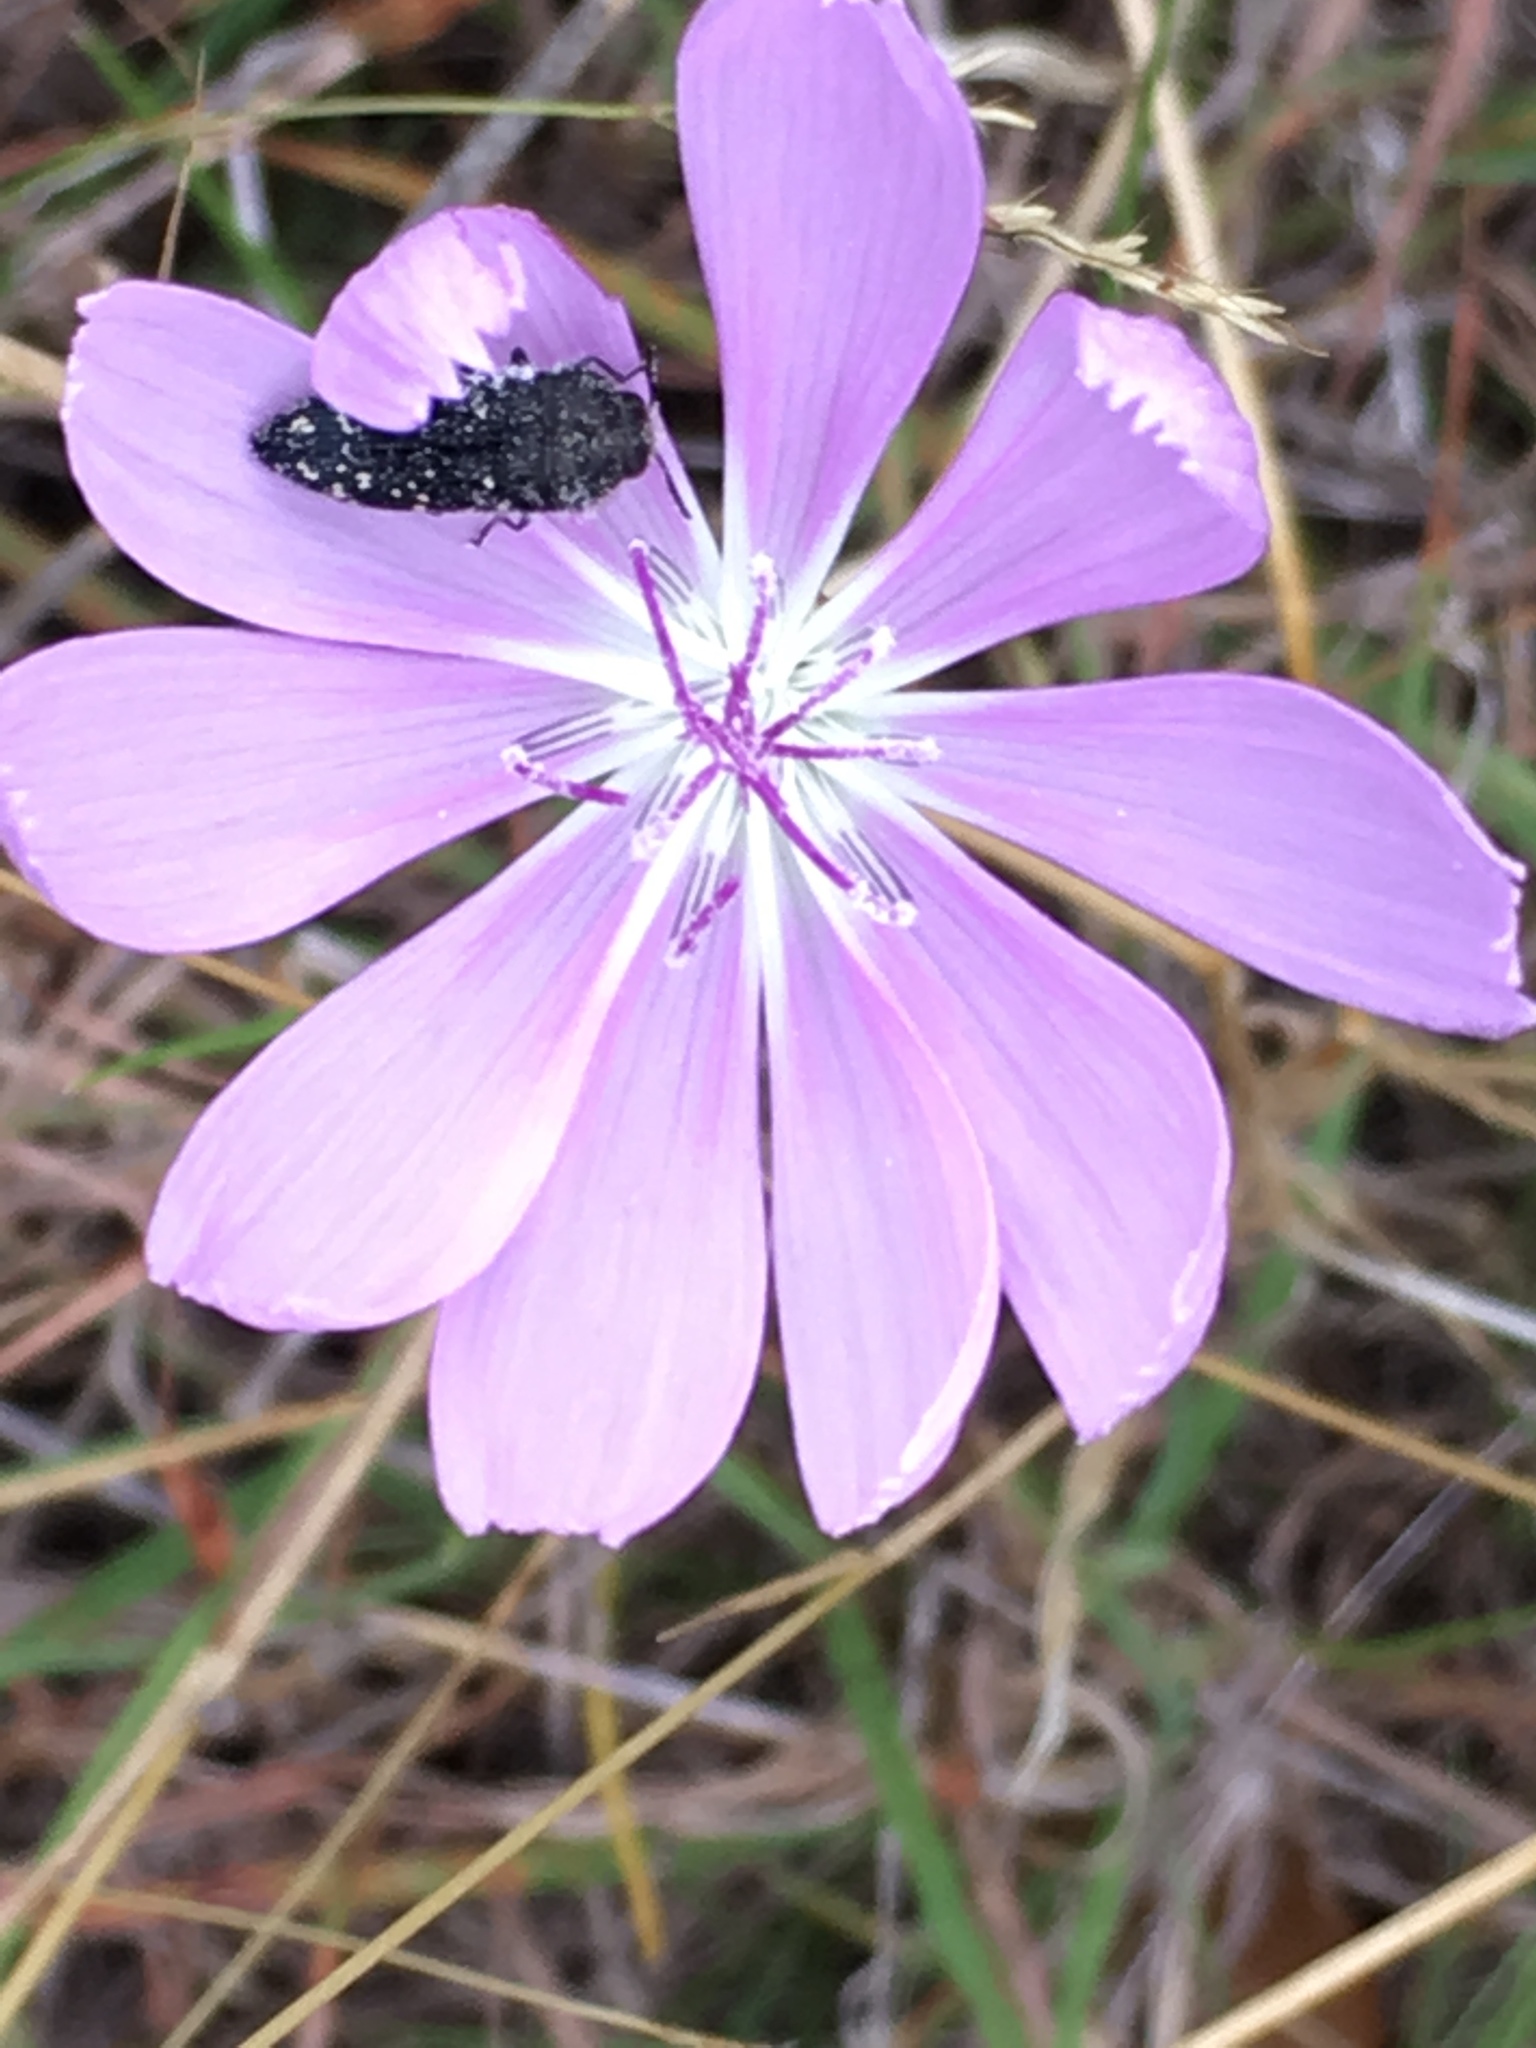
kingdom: Plantae
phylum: Tracheophyta
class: Magnoliopsida
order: Asterales
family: Asteraceae
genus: Lygodesmia
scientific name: Lygodesmia texana
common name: Texas skeleton-plant
